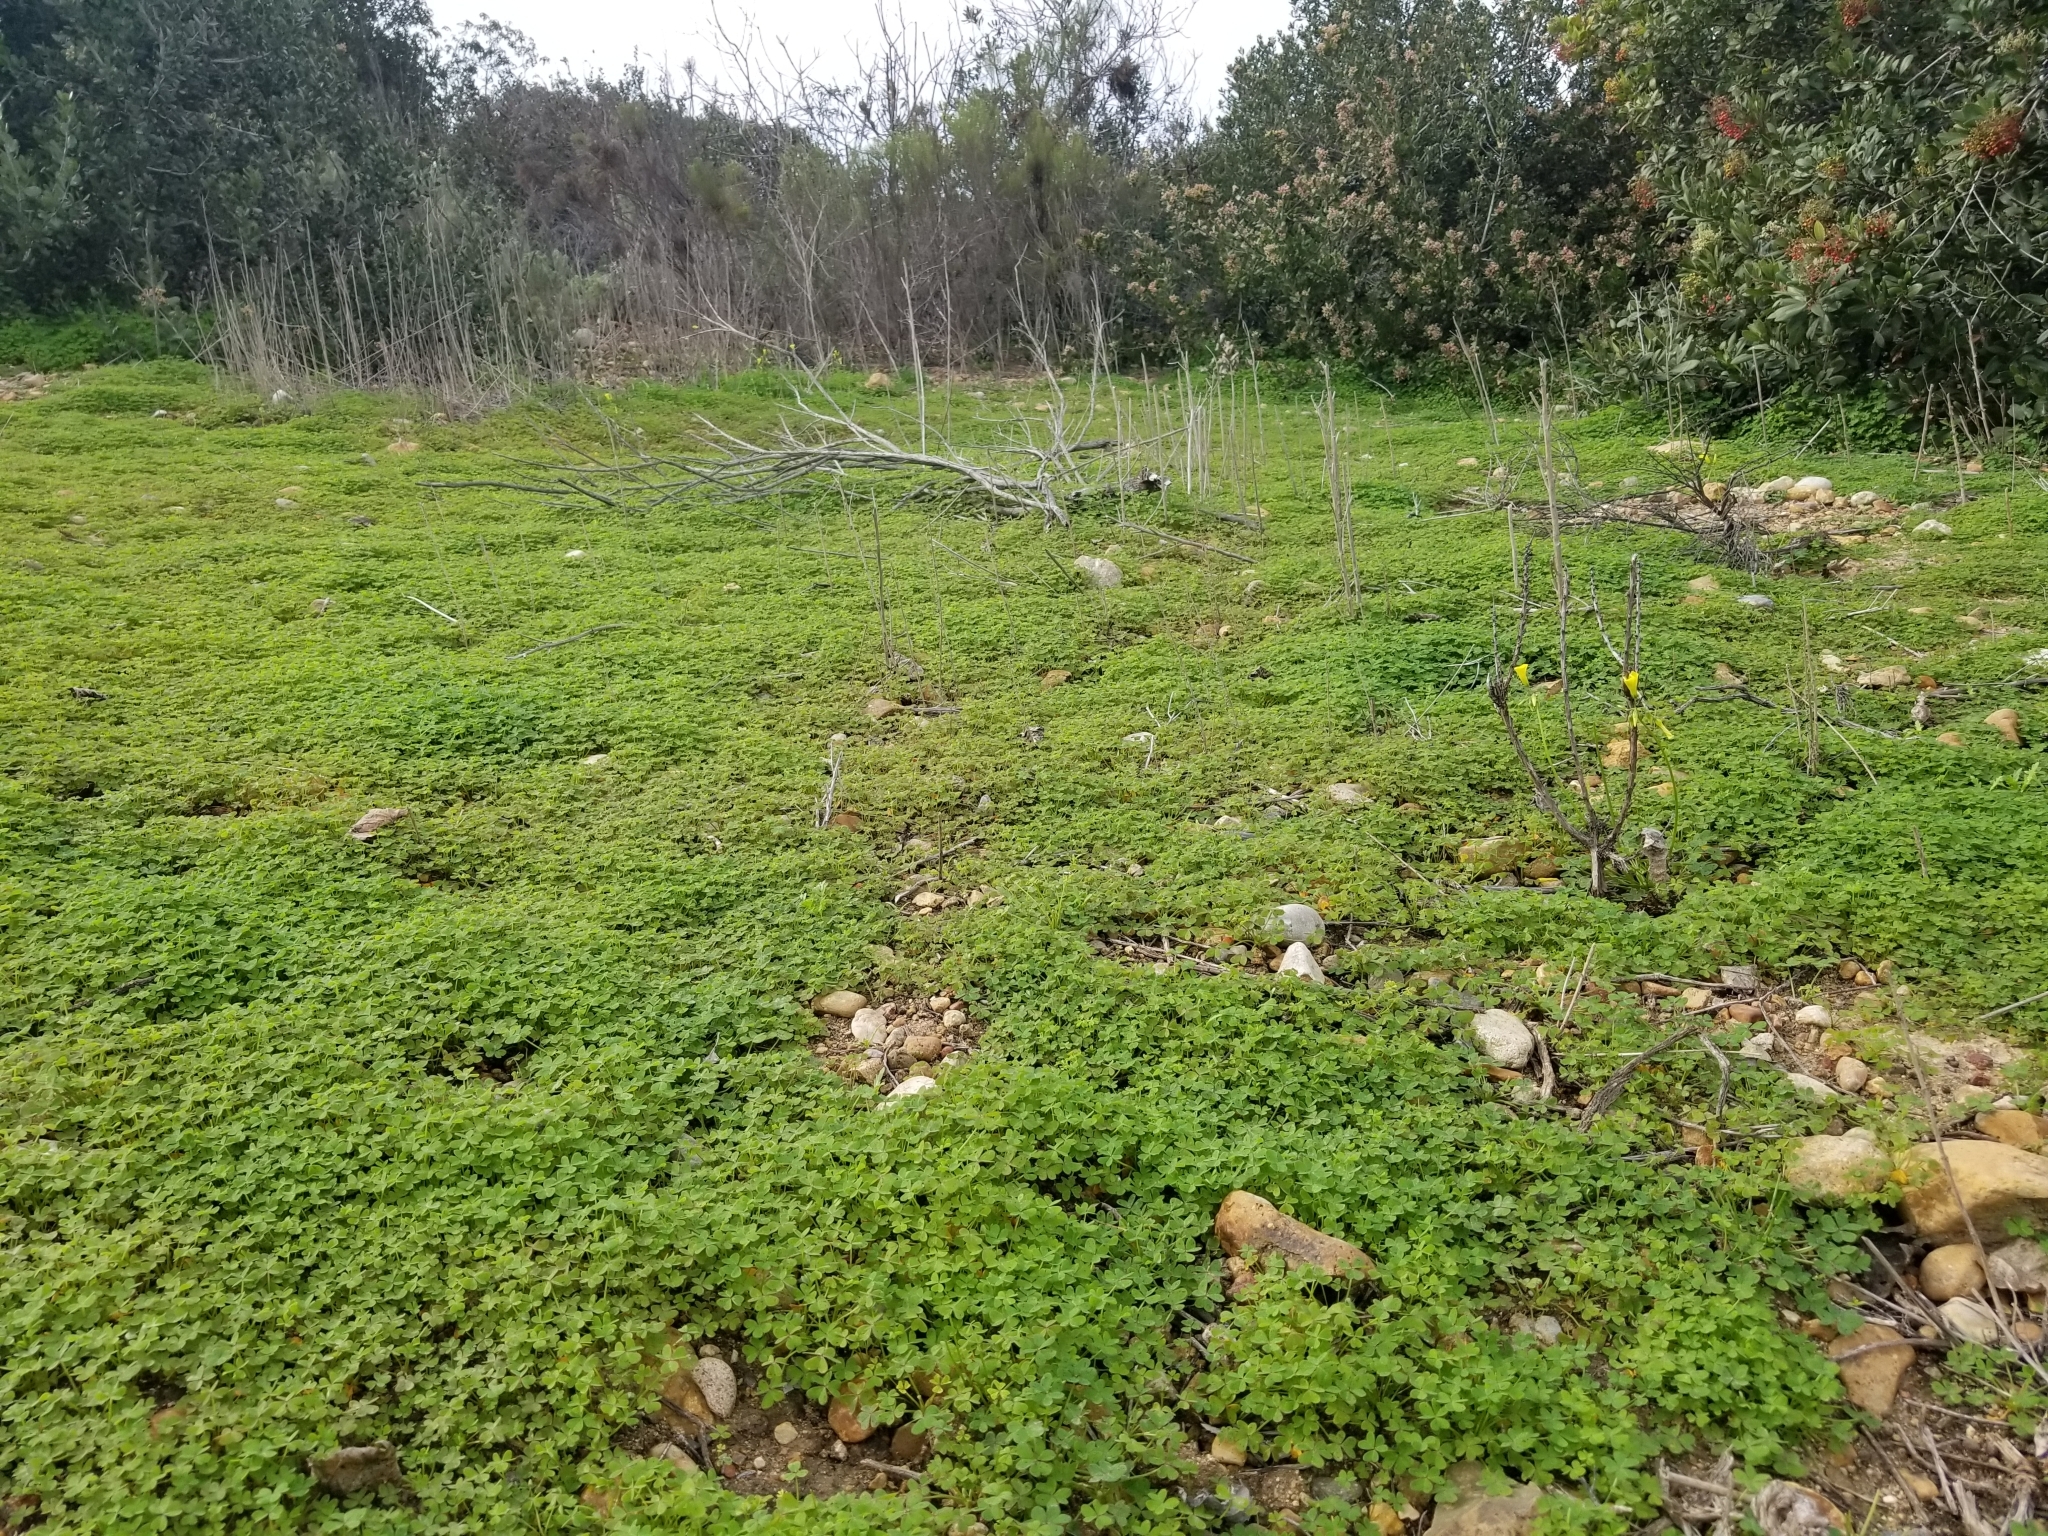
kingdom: Plantae
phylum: Tracheophyta
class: Magnoliopsida
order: Oxalidales
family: Oxalidaceae
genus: Oxalis
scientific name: Oxalis pes-caprae
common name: Bermuda-buttercup
